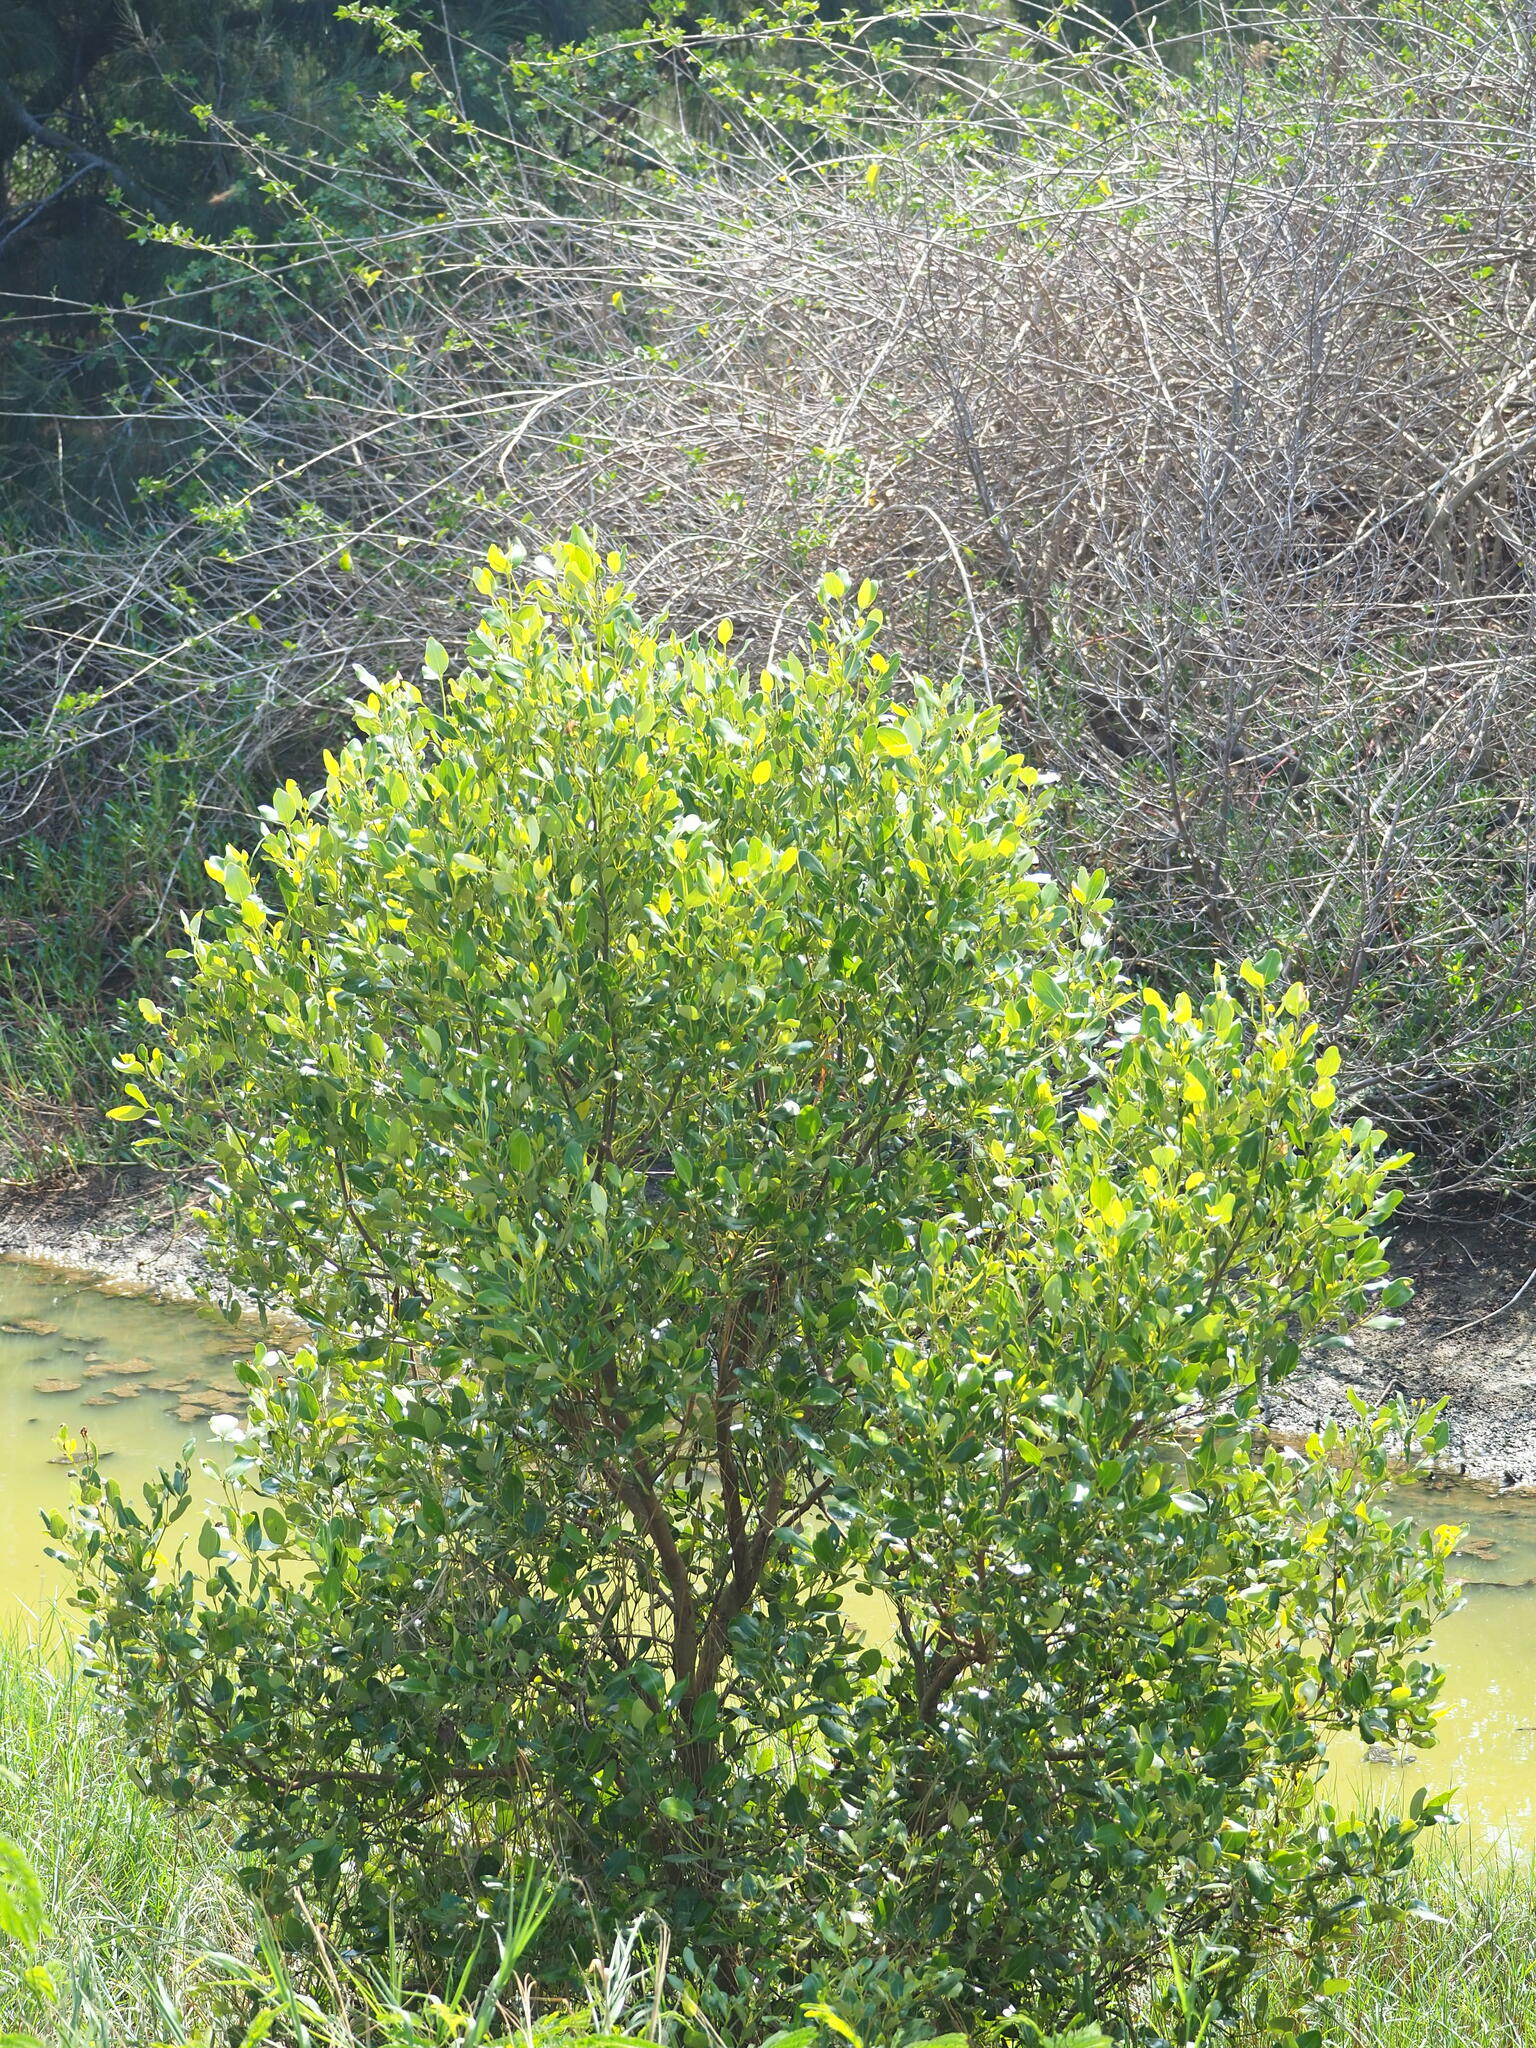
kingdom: Plantae
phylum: Tracheophyta
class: Magnoliopsida
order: Lamiales
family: Acanthaceae
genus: Avicennia
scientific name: Avicennia marina
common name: Gray mangrove
